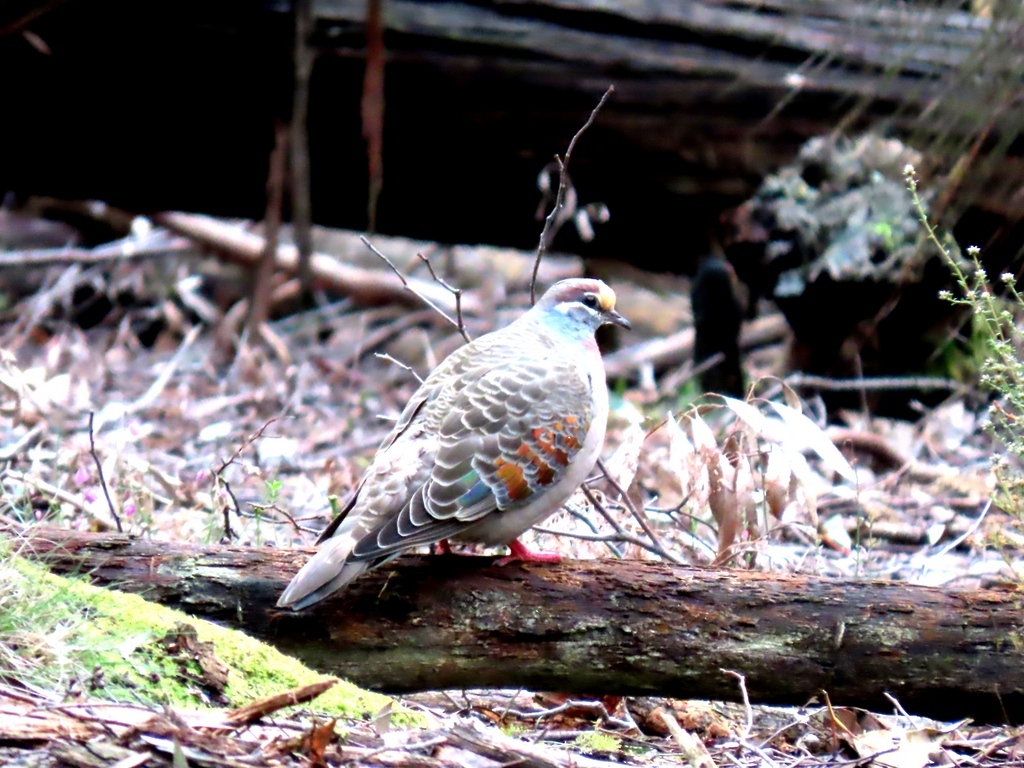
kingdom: Animalia
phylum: Chordata
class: Aves
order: Columbiformes
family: Columbidae
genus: Phaps
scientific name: Phaps chalcoptera
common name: Common bronzewing
